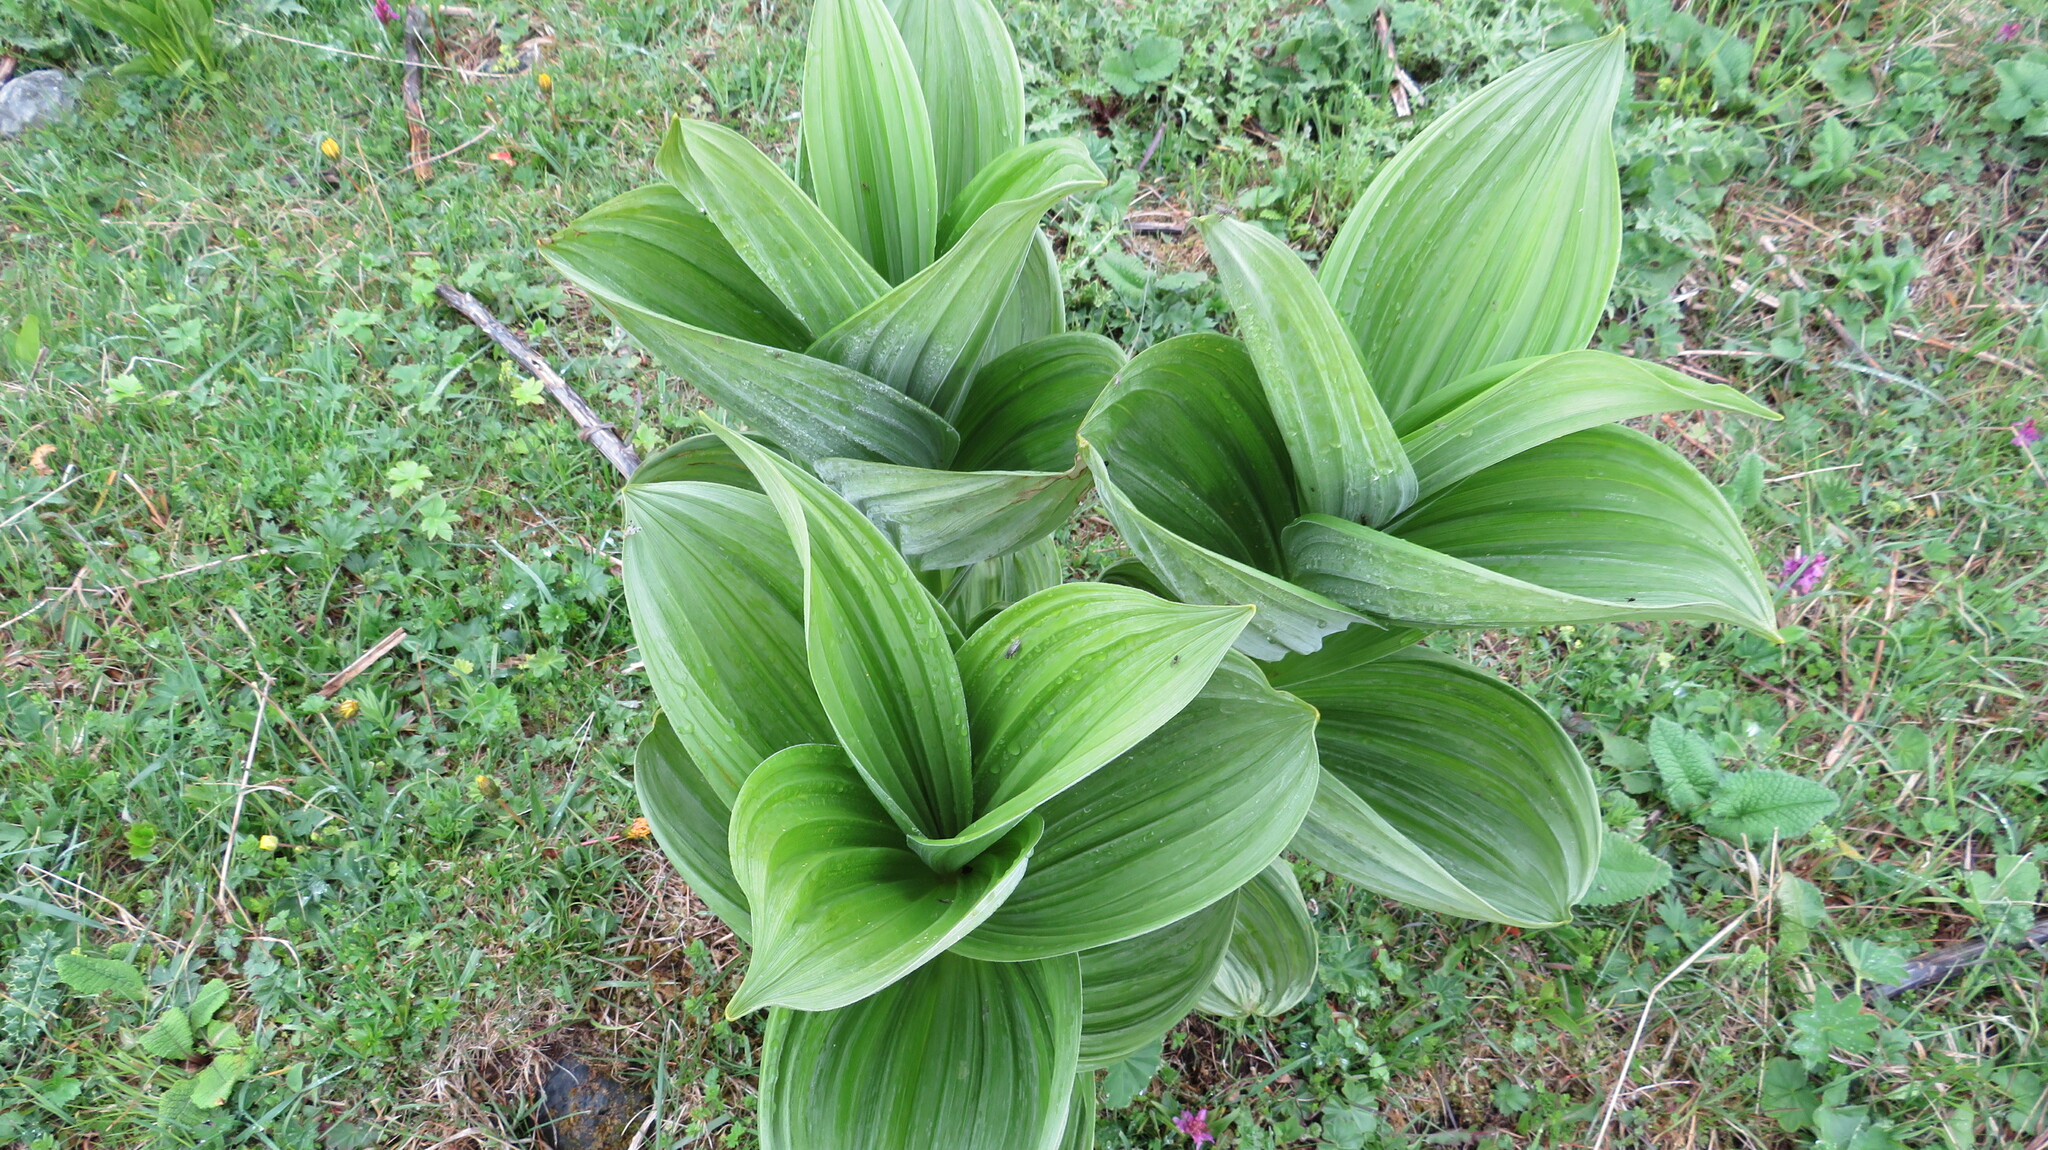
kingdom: Plantae
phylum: Tracheophyta
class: Liliopsida
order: Liliales
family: Melanthiaceae
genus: Veratrum
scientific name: Veratrum lobelianum
